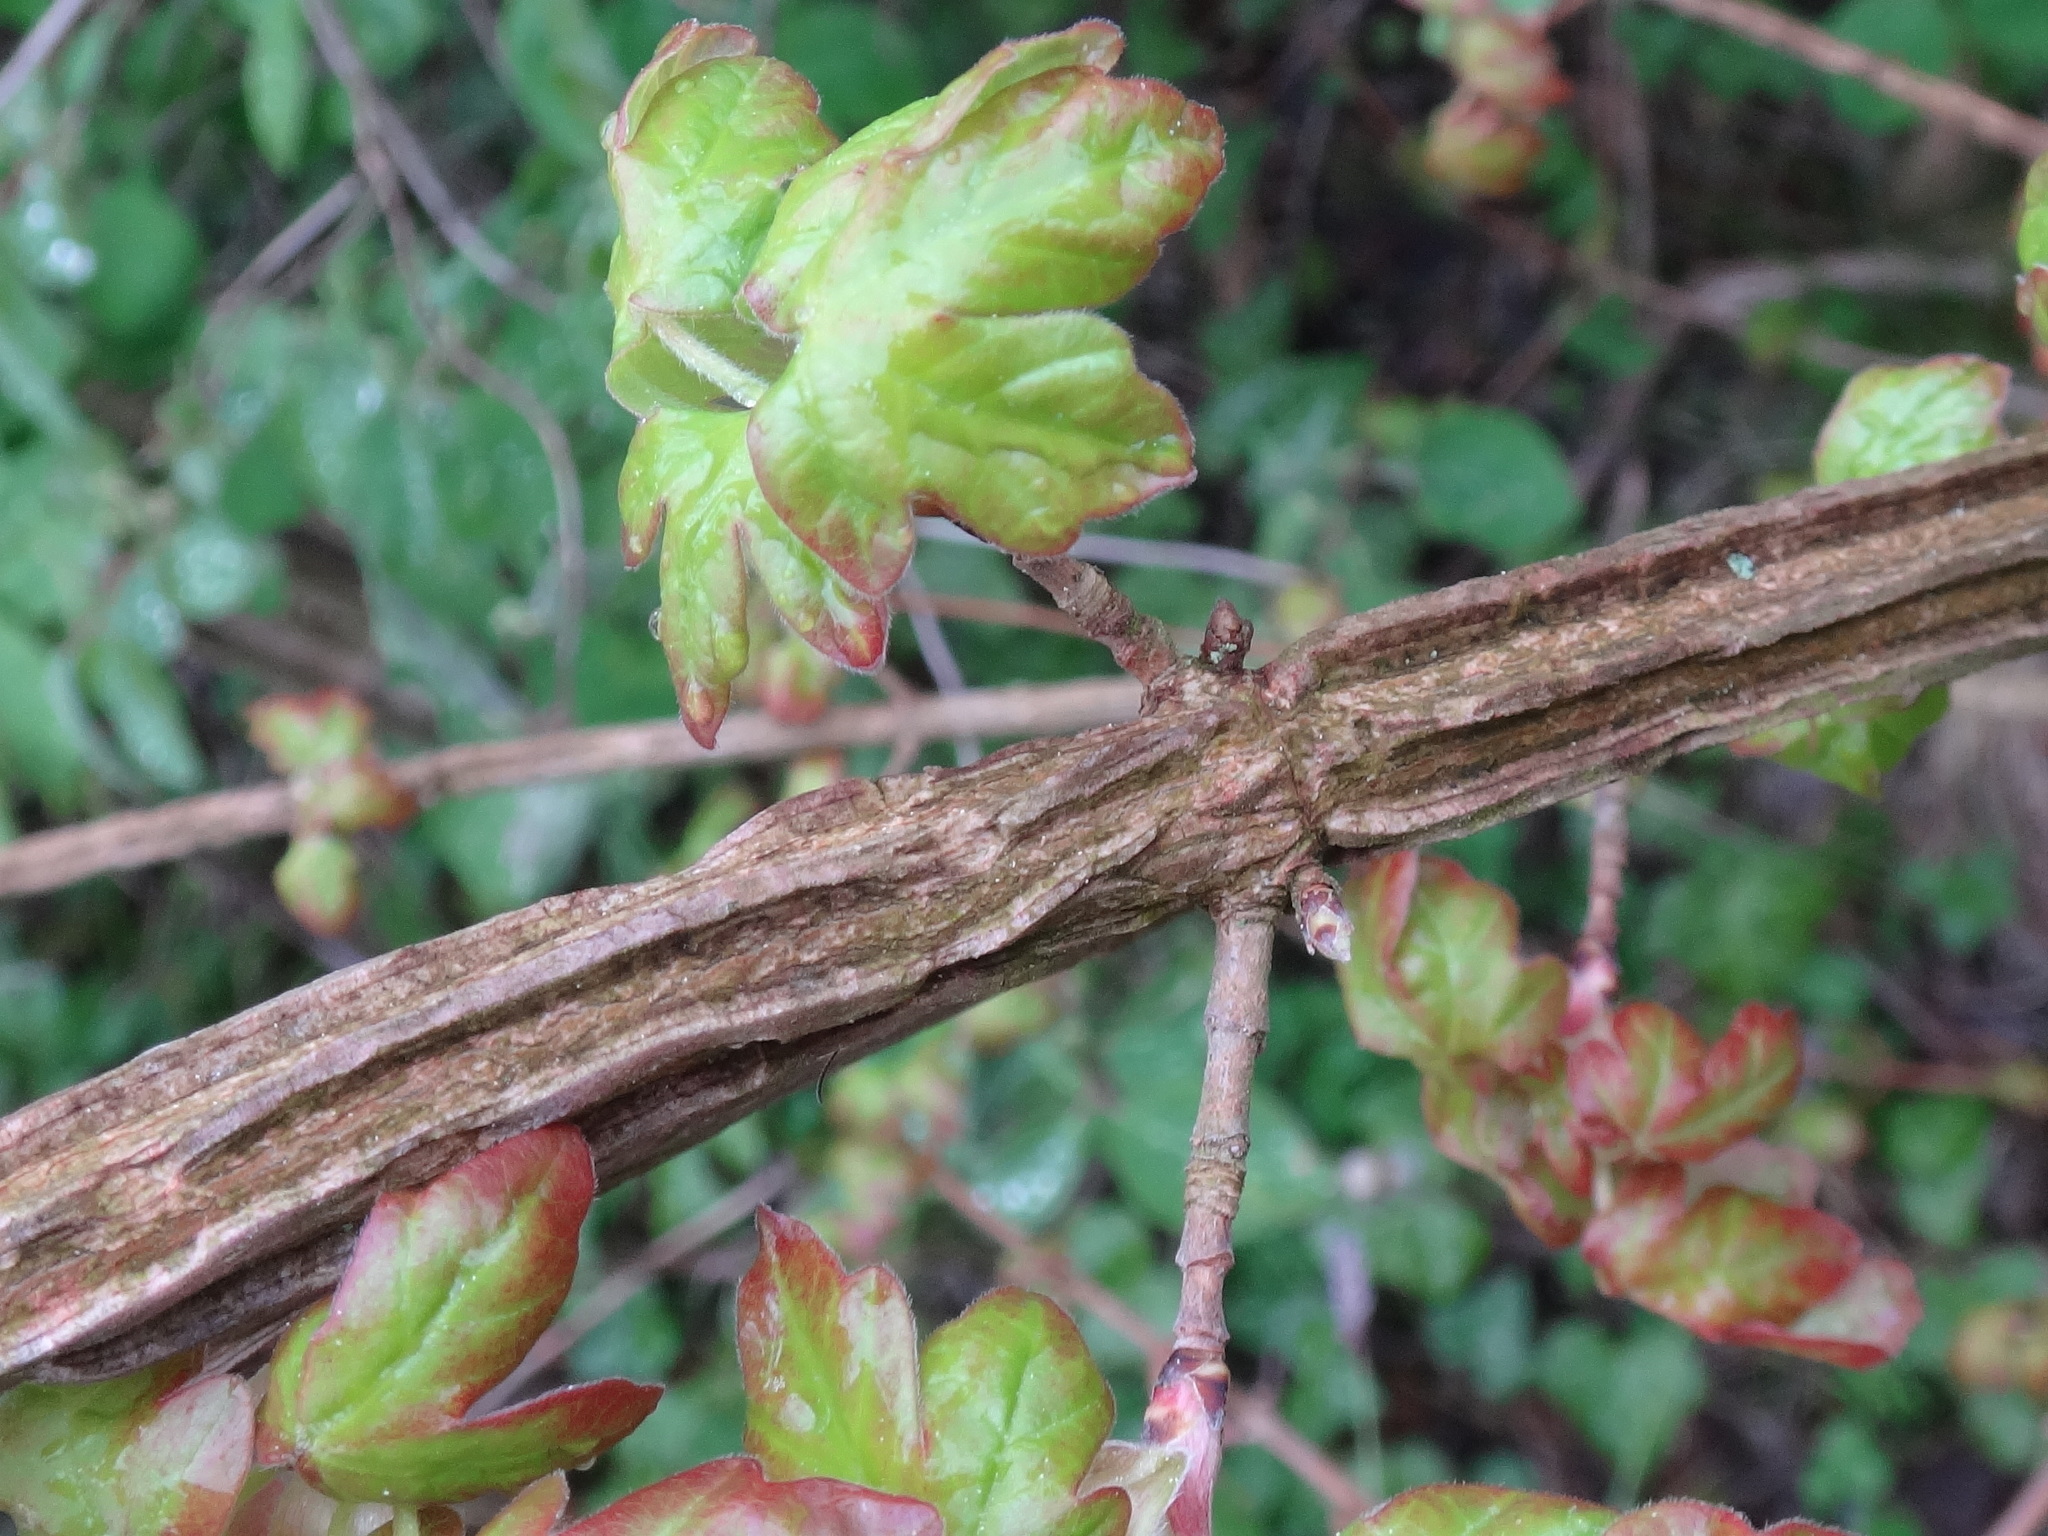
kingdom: Plantae
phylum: Tracheophyta
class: Magnoliopsida
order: Sapindales
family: Sapindaceae
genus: Acer
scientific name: Acer campestre
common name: Field maple
